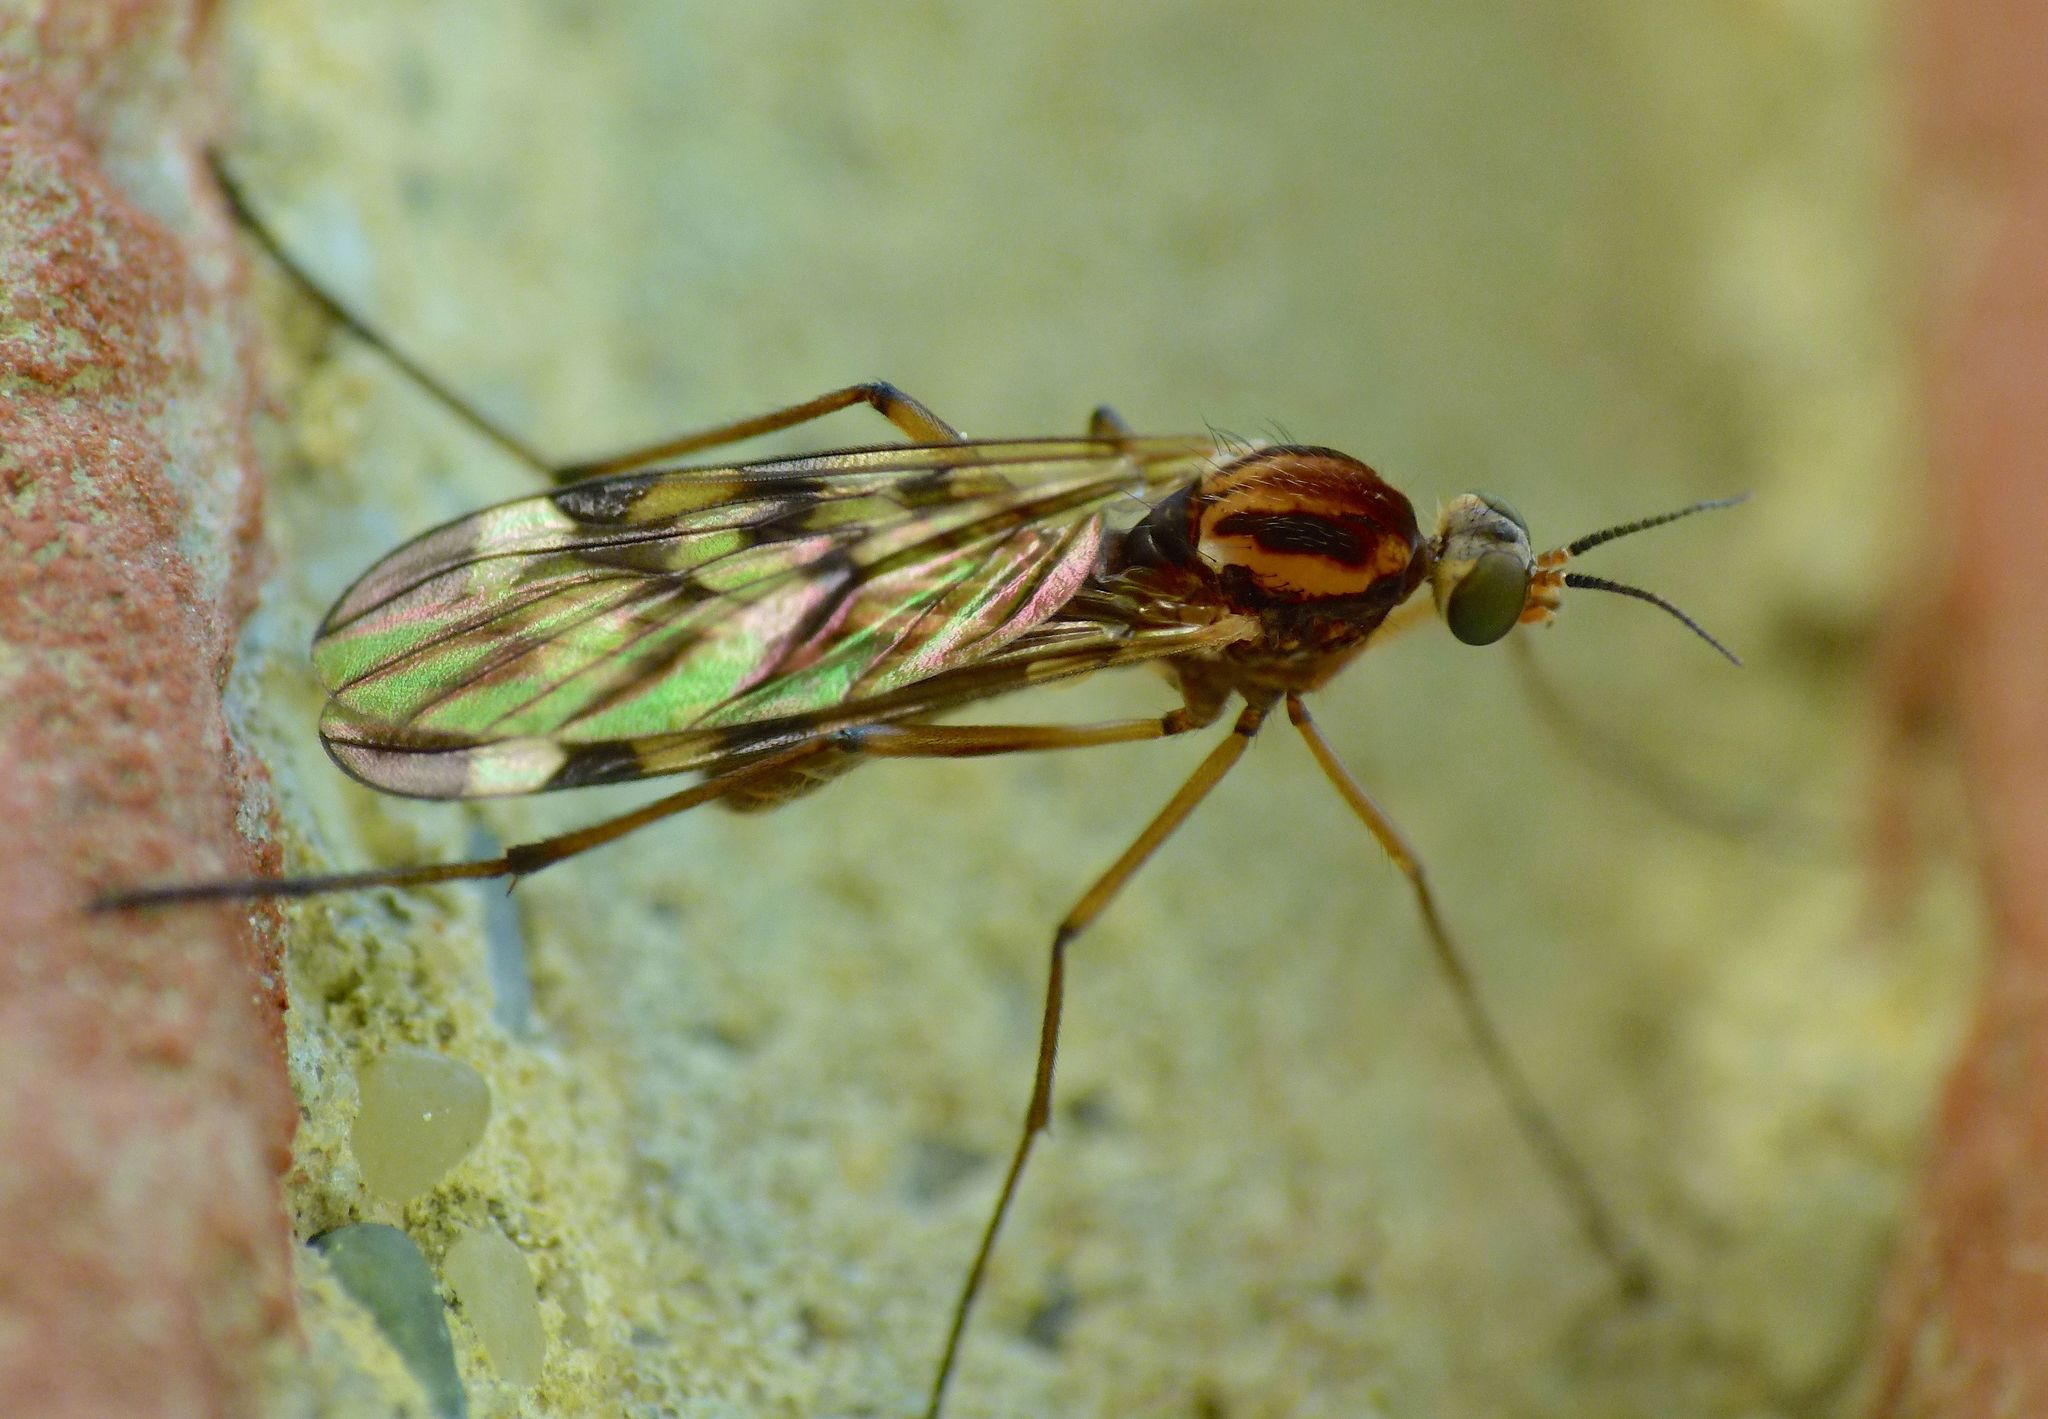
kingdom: Animalia
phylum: Arthropoda
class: Insecta
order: Diptera
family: Anisopodidae
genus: Sylvicola
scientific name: Sylvicola notatus
